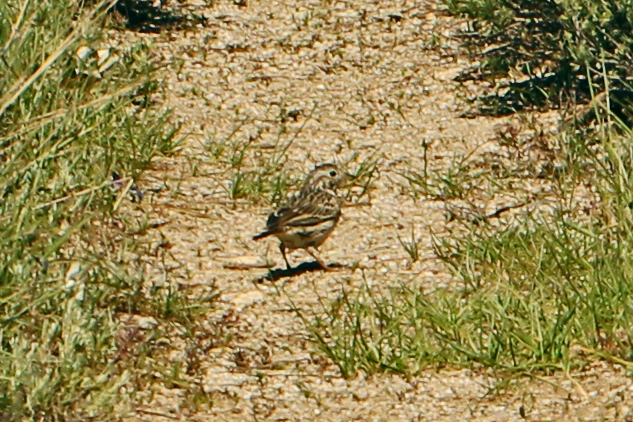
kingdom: Animalia
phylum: Chordata
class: Aves
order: Passeriformes
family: Passerellidae
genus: Pooecetes
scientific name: Pooecetes gramineus
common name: Vesper sparrow
